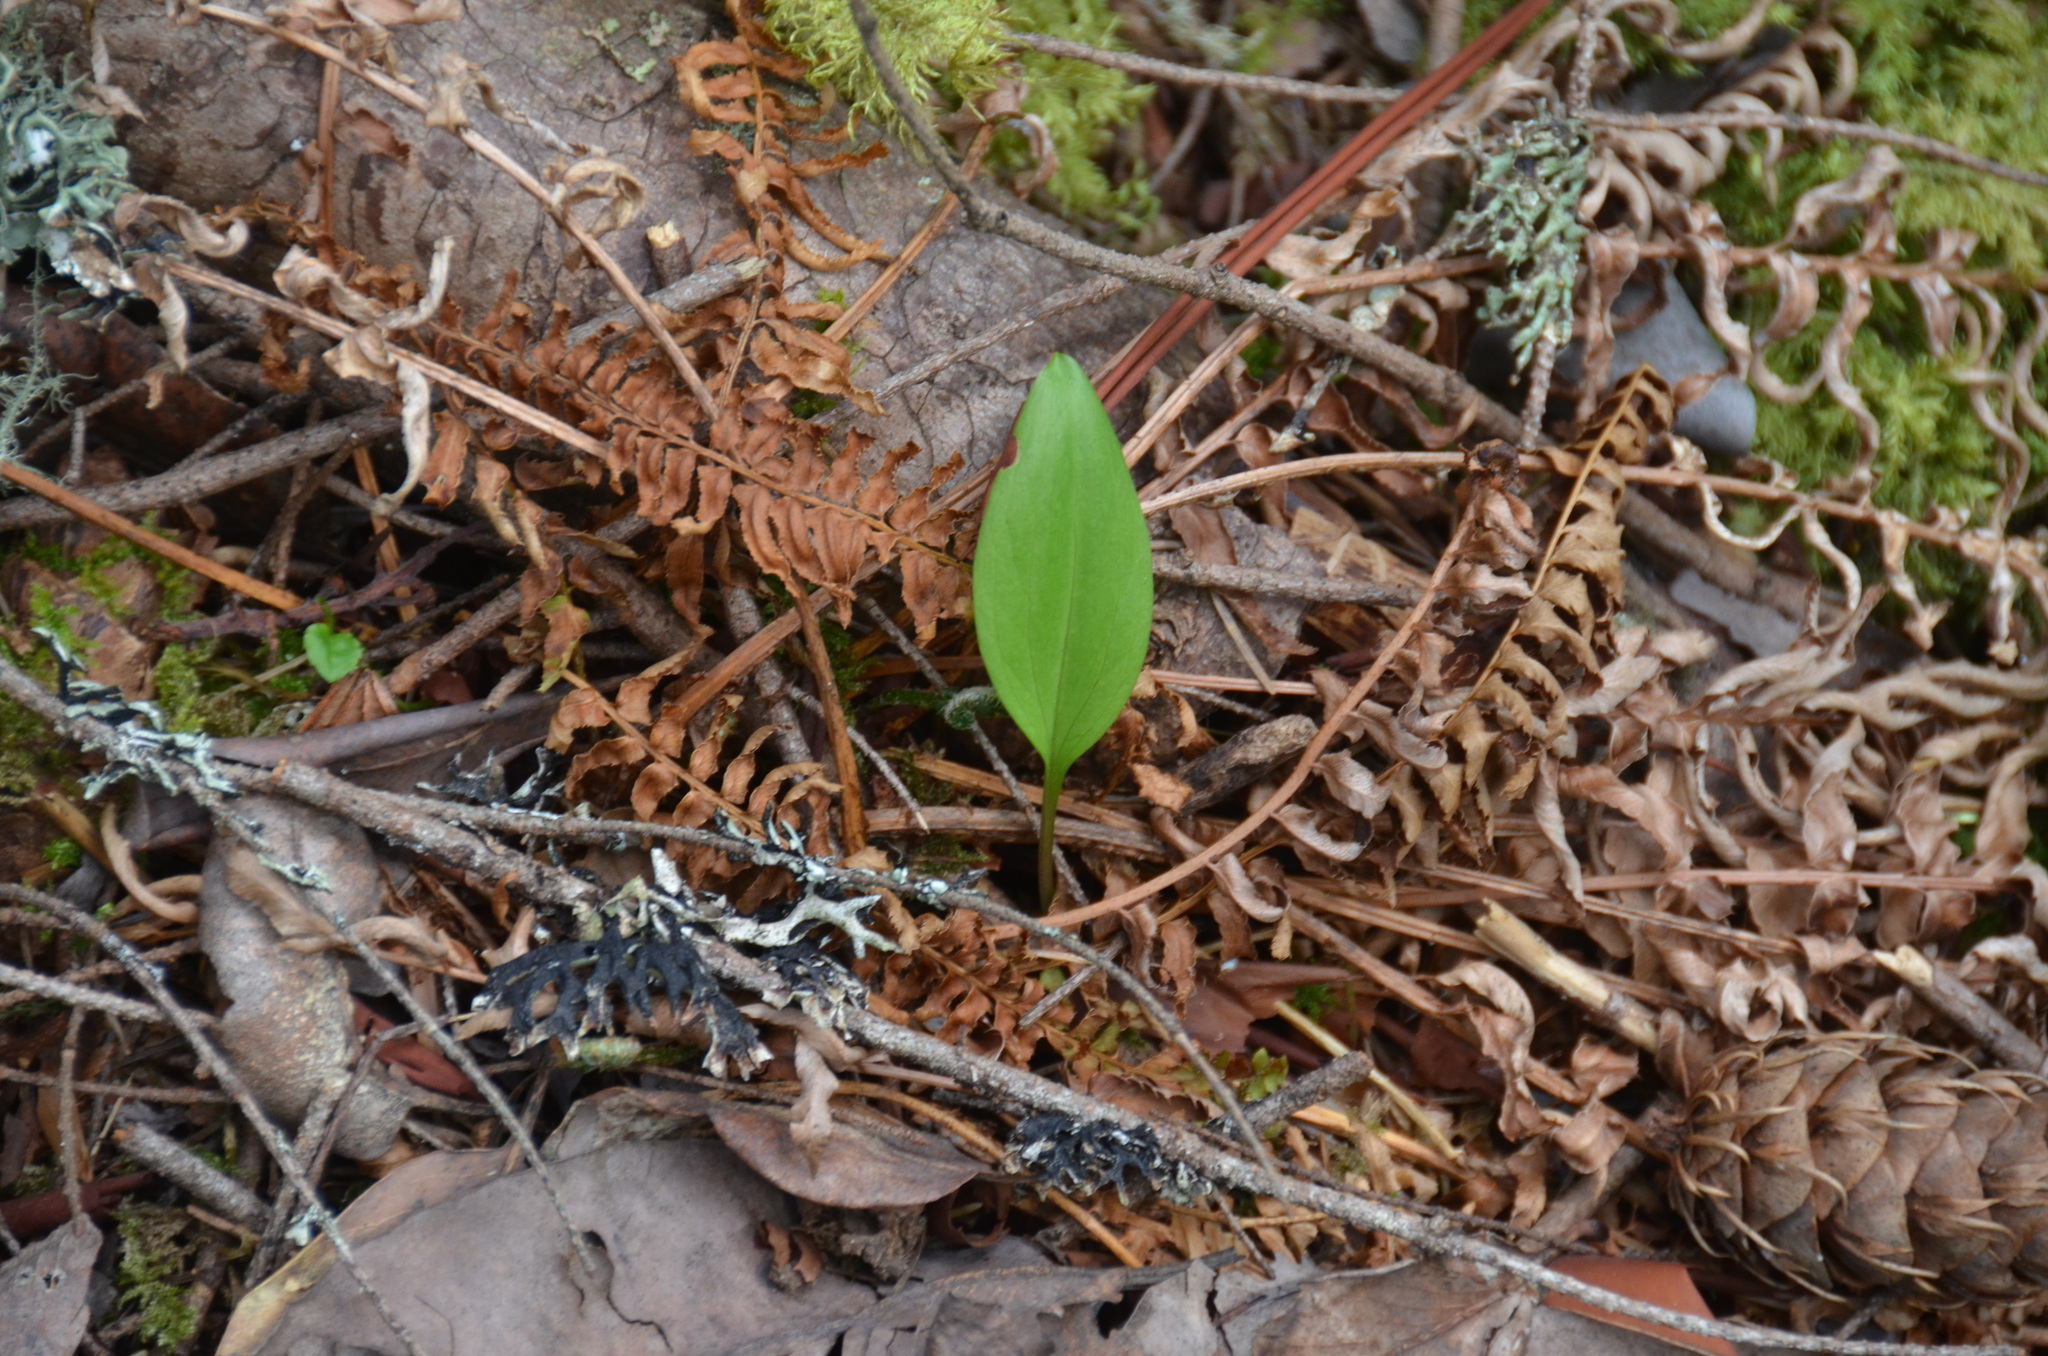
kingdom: Plantae
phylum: Tracheophyta
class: Liliopsida
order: Liliales
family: Liliaceae
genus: Fritillaria
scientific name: Fritillaria affinis
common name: Ojai fritillary
